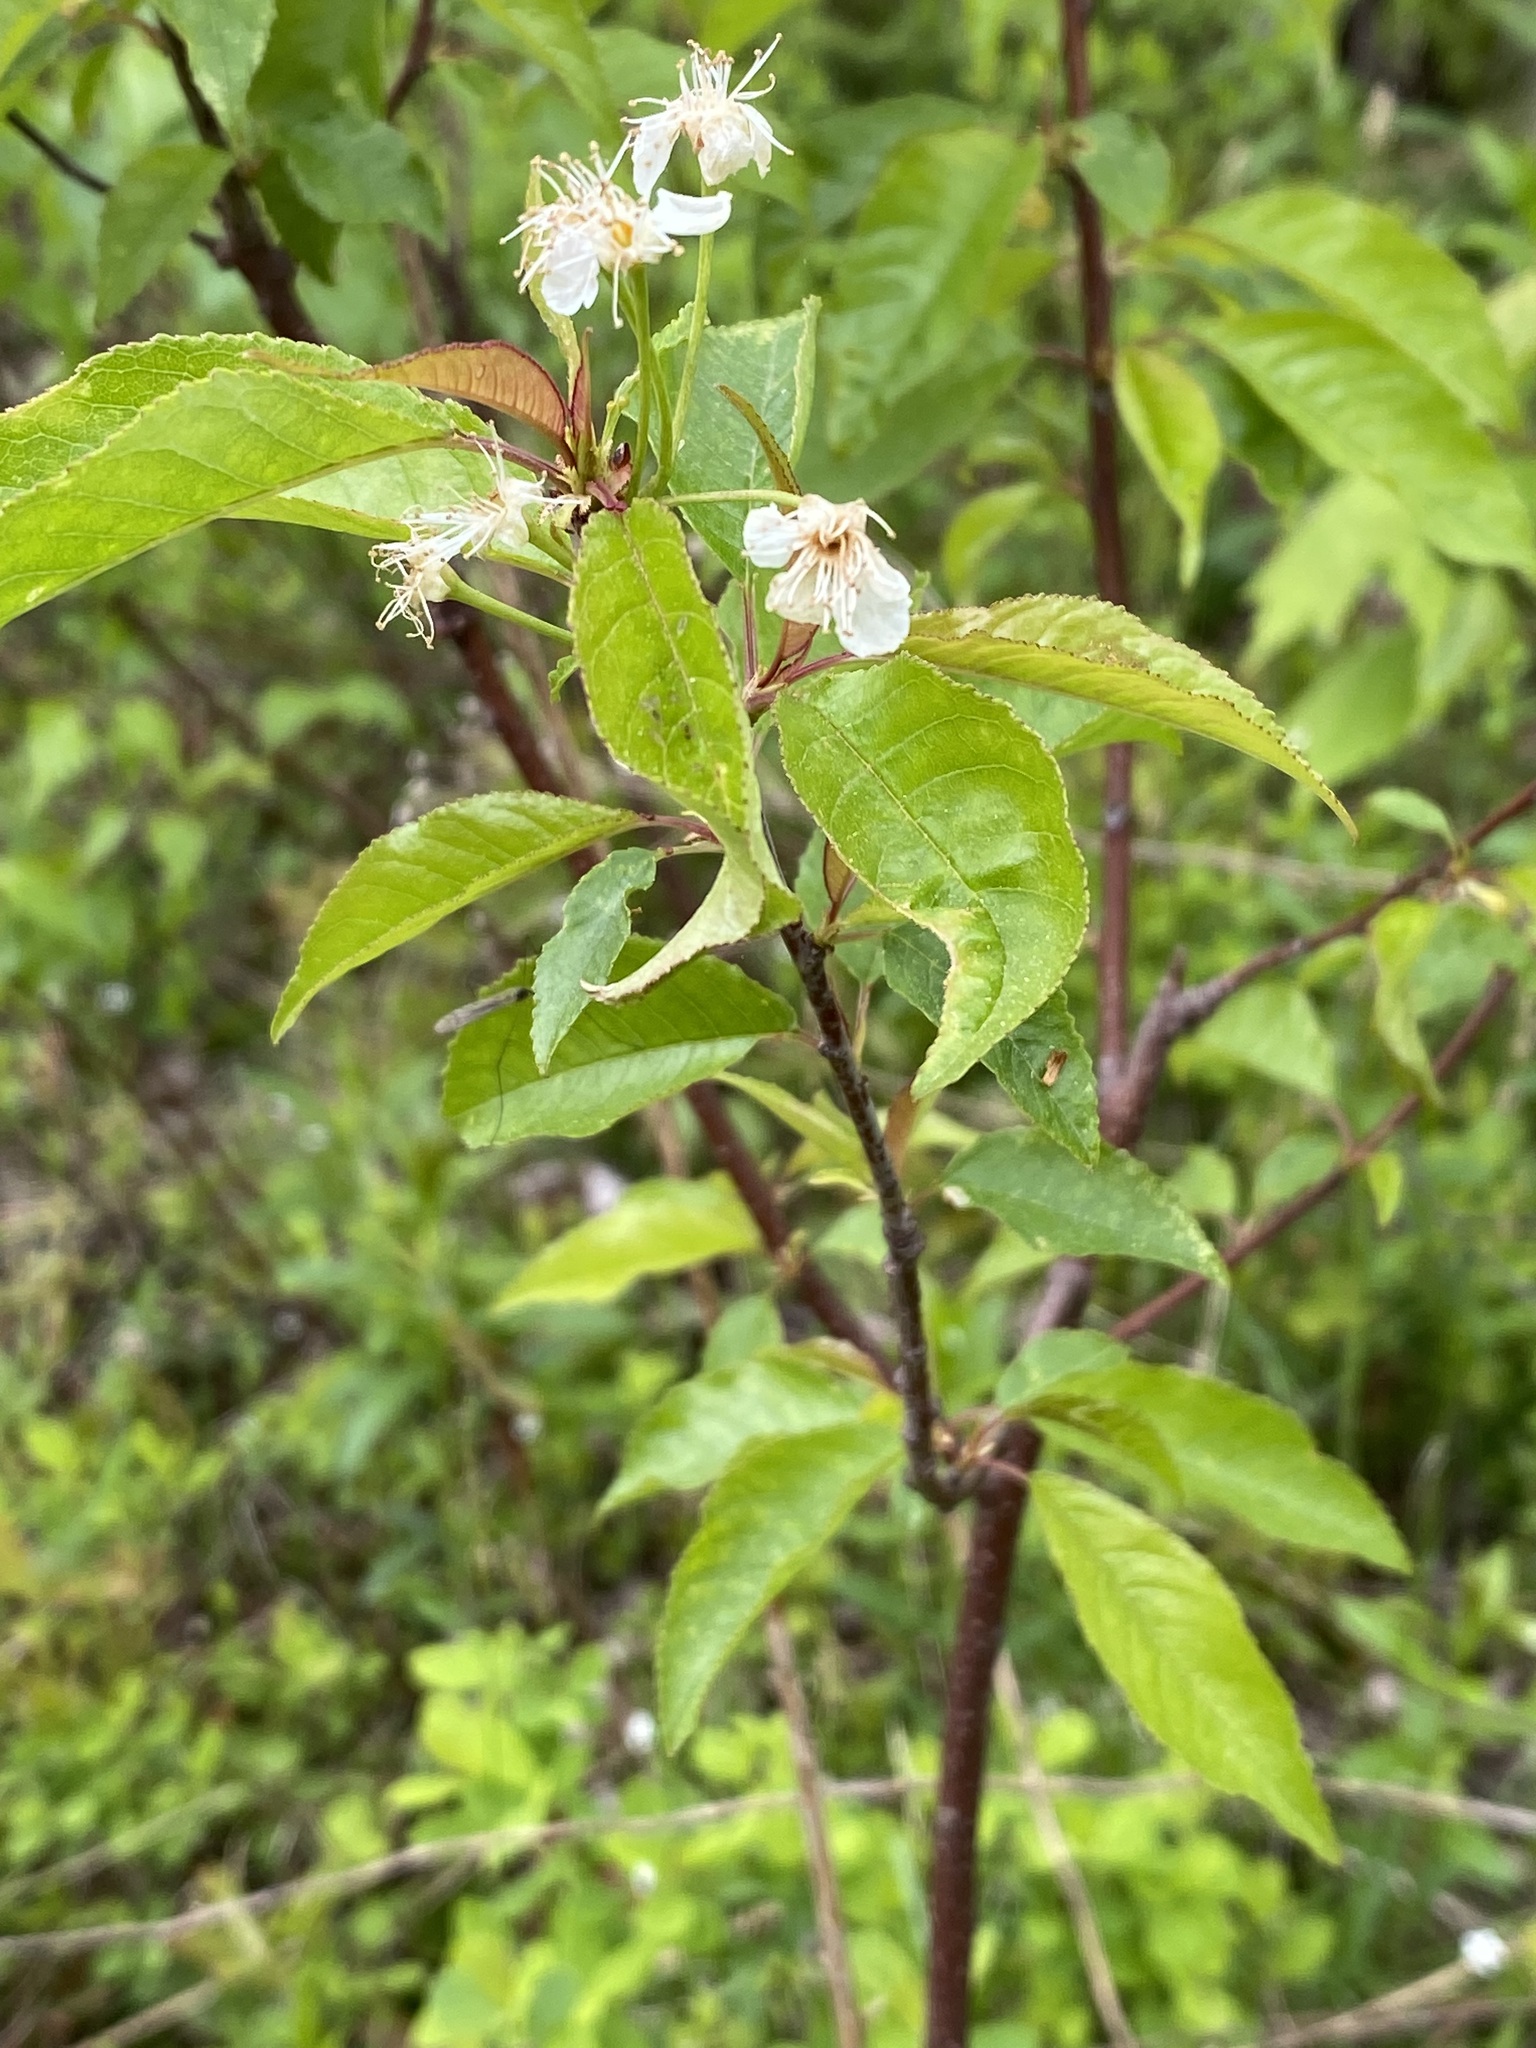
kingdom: Plantae
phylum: Tracheophyta
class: Magnoliopsida
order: Rosales
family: Rosaceae
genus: Prunus
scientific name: Prunus pensylvanica
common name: Pin cherry
